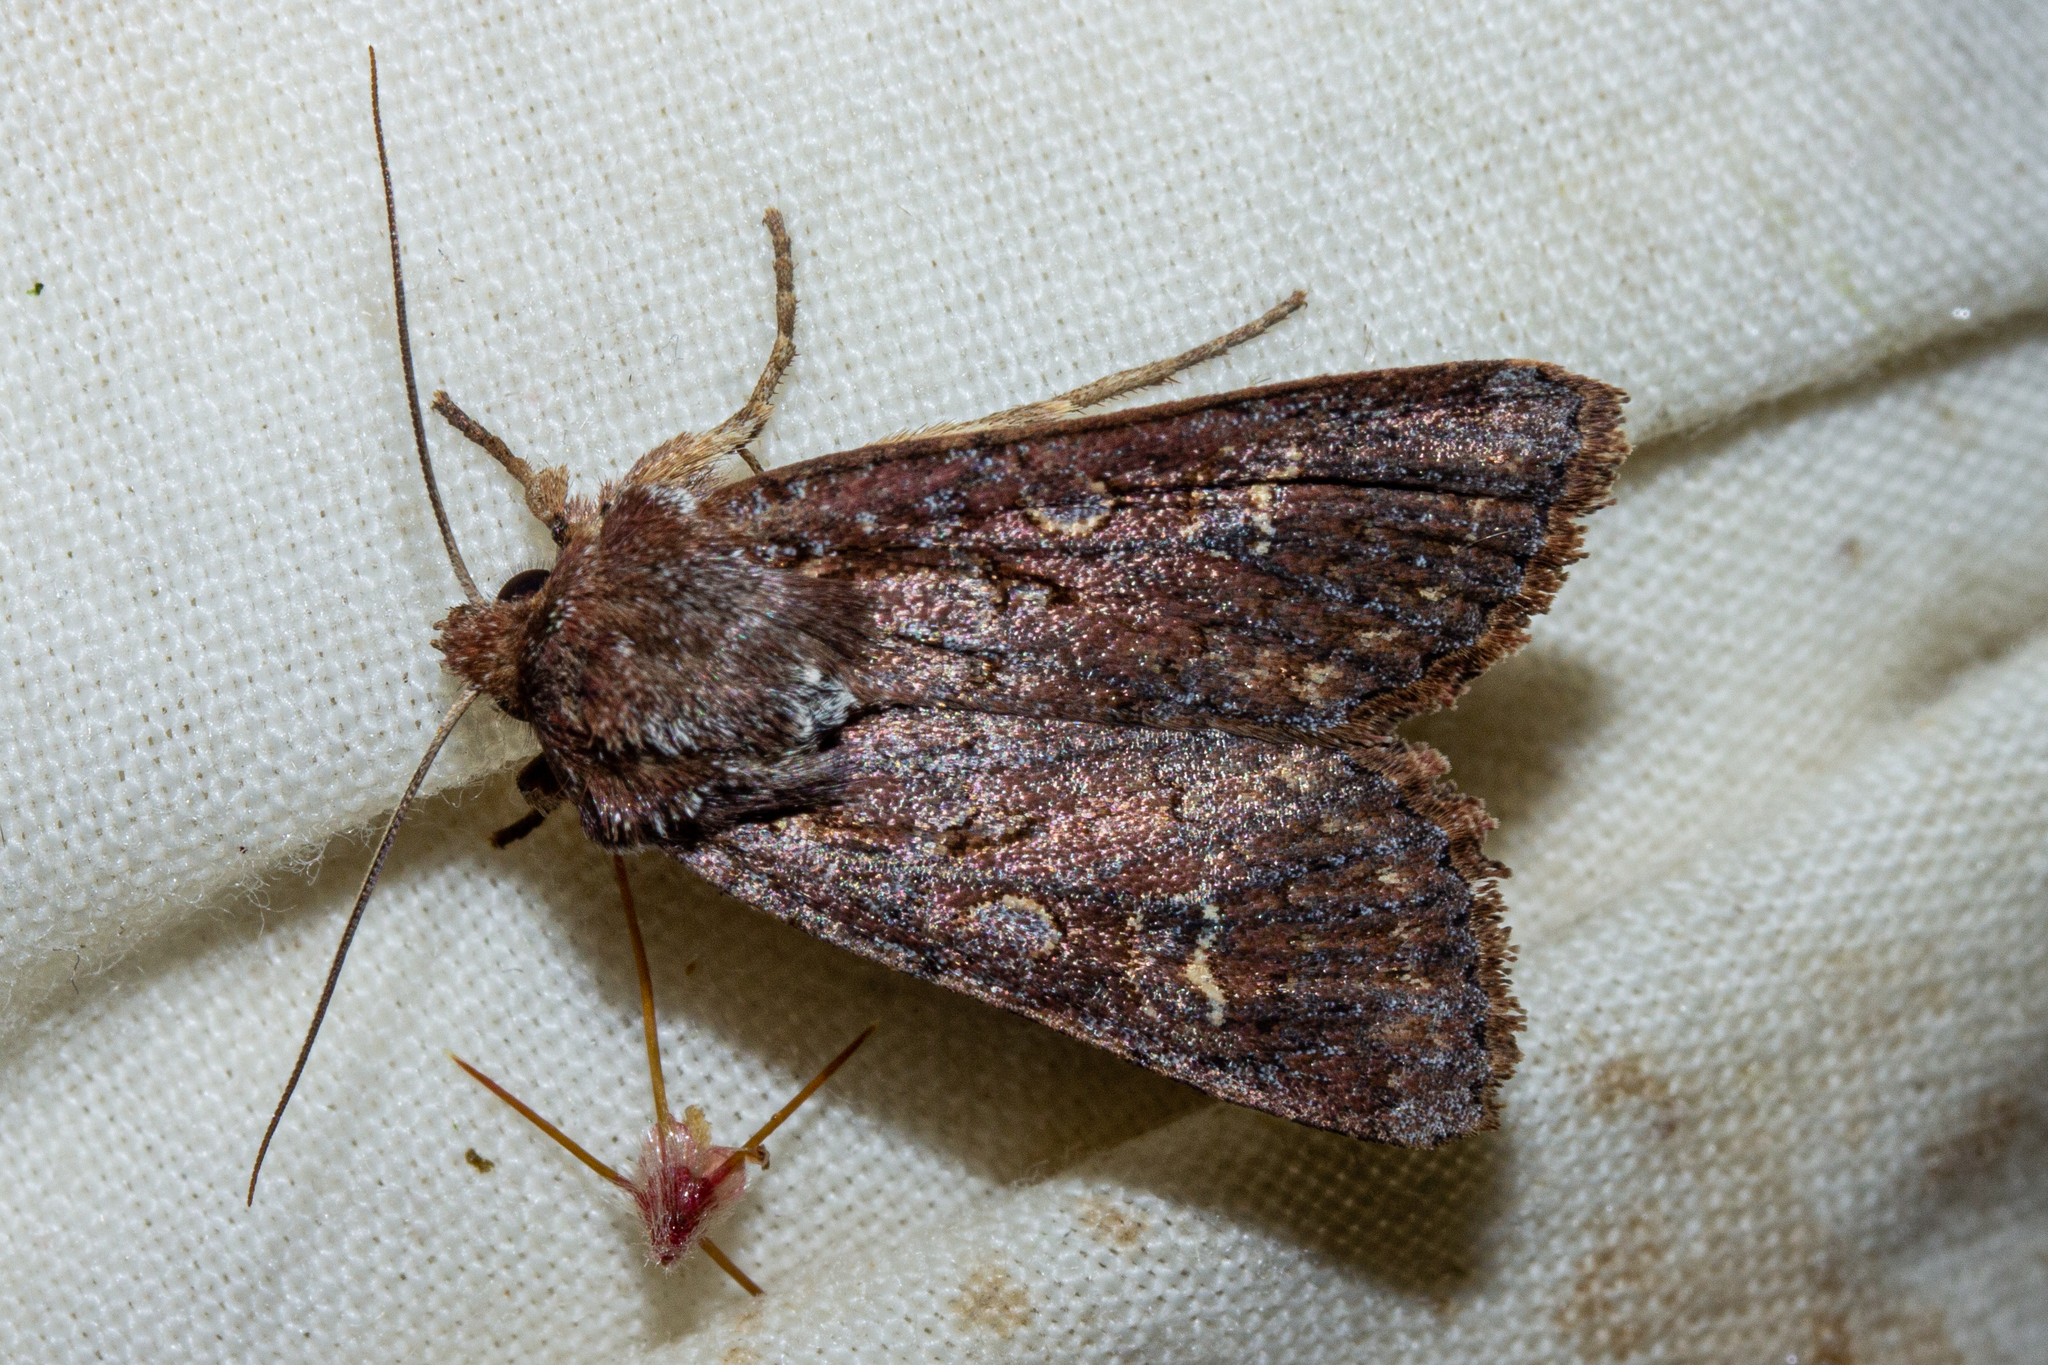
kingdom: Animalia
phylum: Arthropoda
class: Insecta
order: Lepidoptera
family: Noctuidae
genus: Ichneutica
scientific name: Ichneutica agorastis
